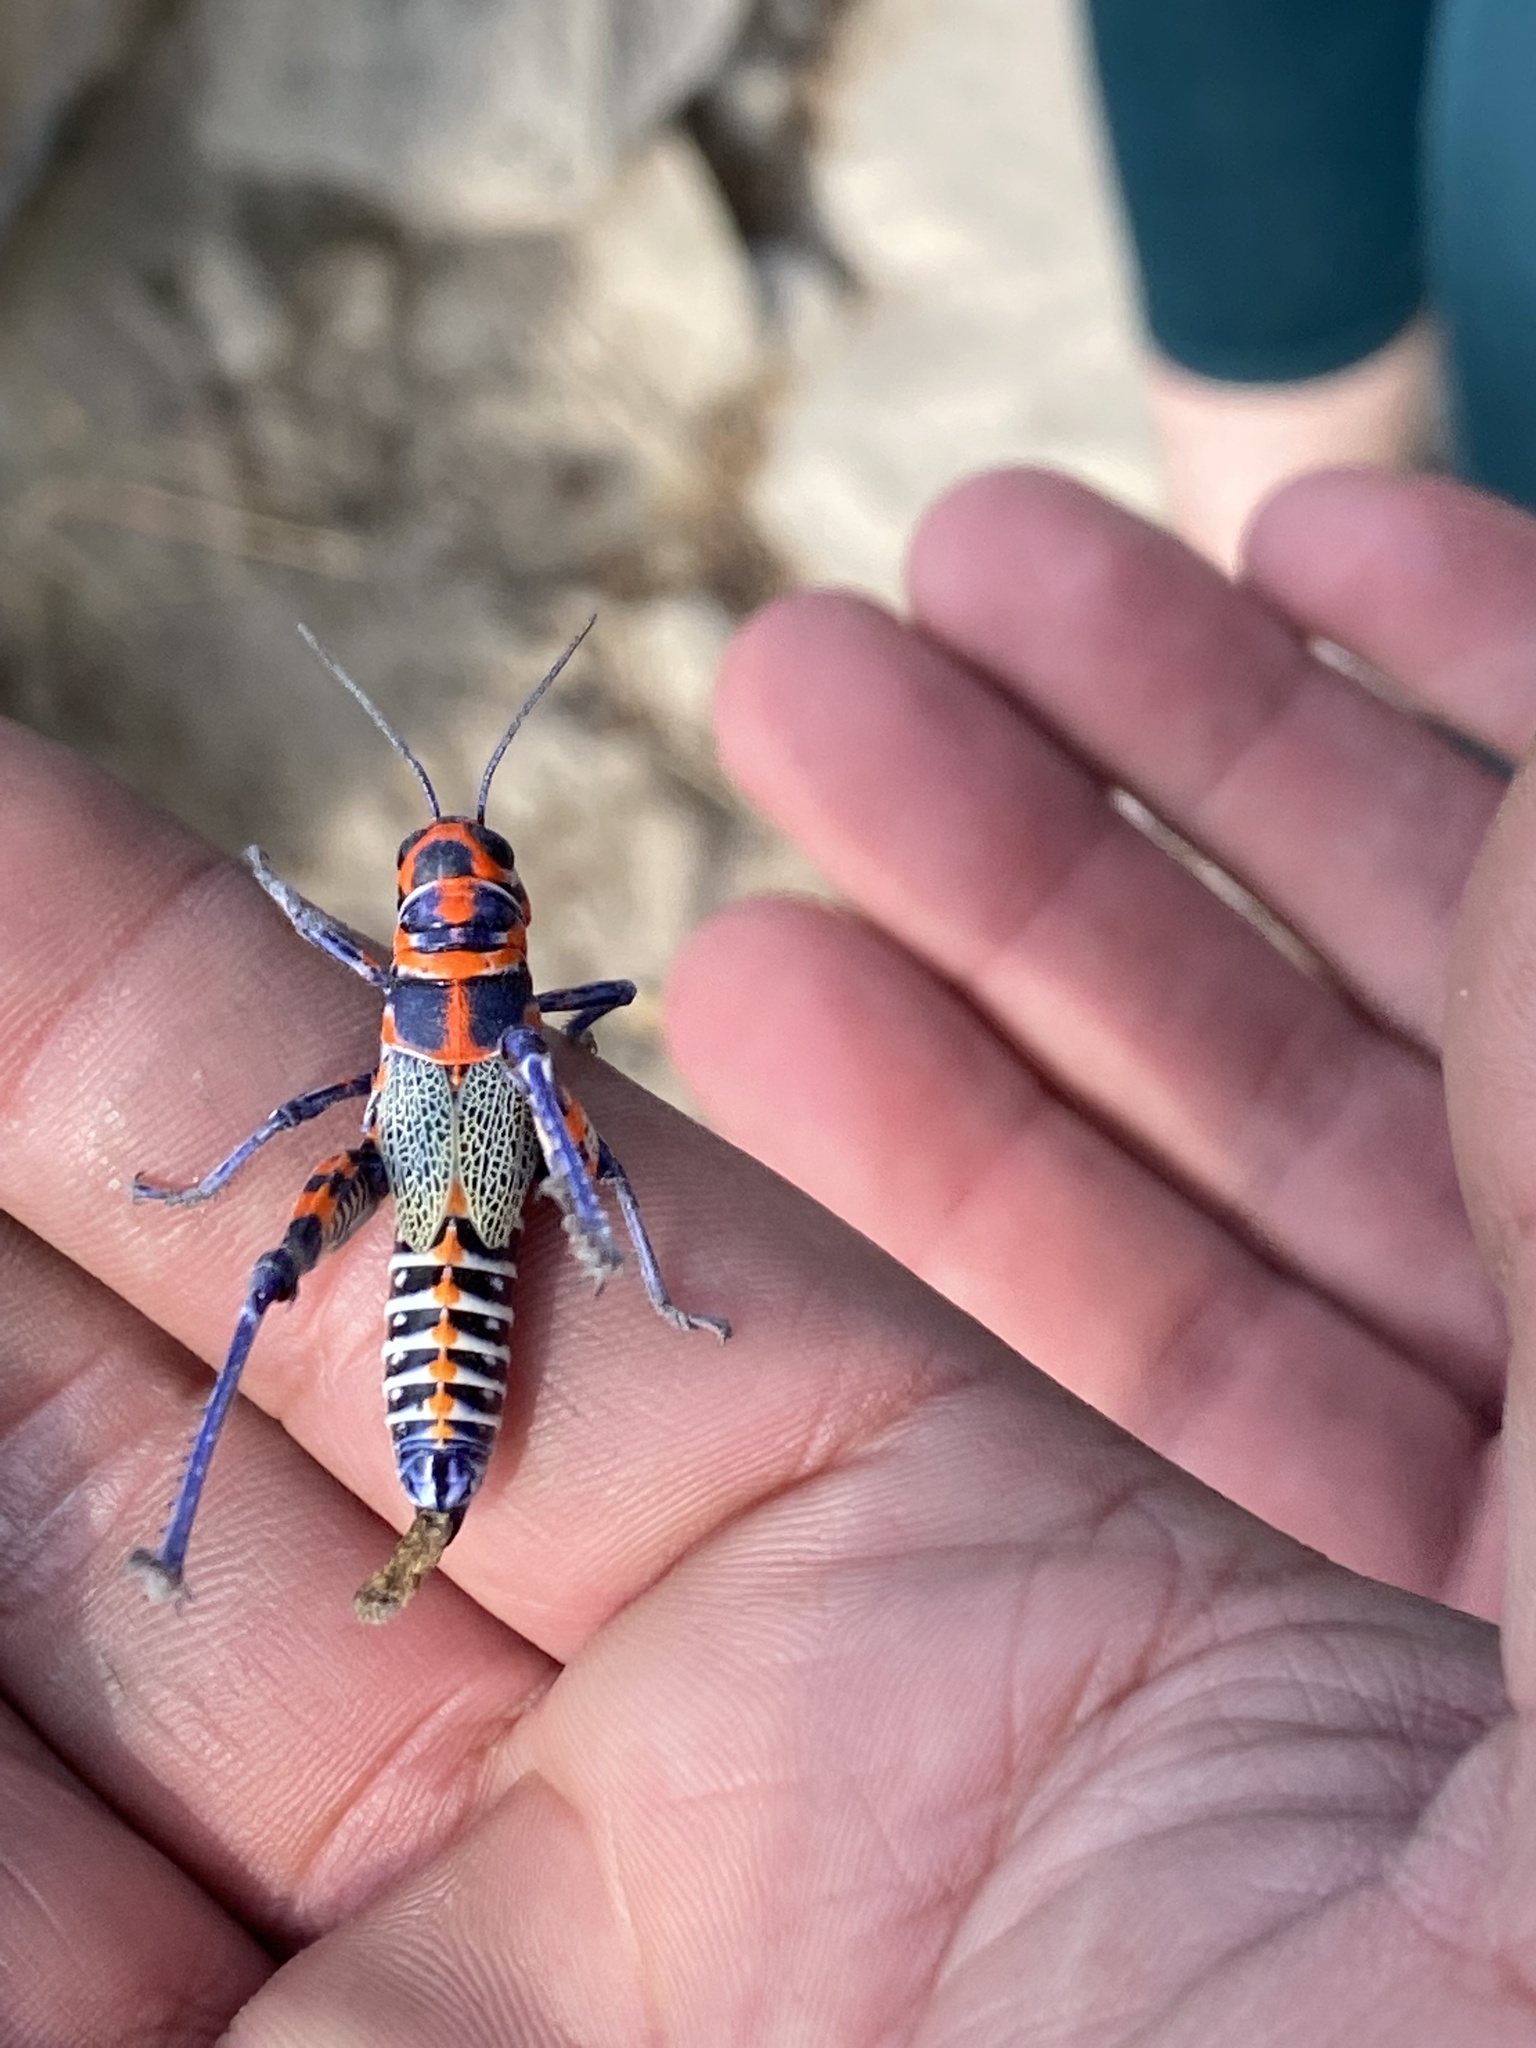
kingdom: Animalia
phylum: Arthropoda
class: Insecta
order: Orthoptera
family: Acrididae
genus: Dactylotum
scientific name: Dactylotum bicolor
